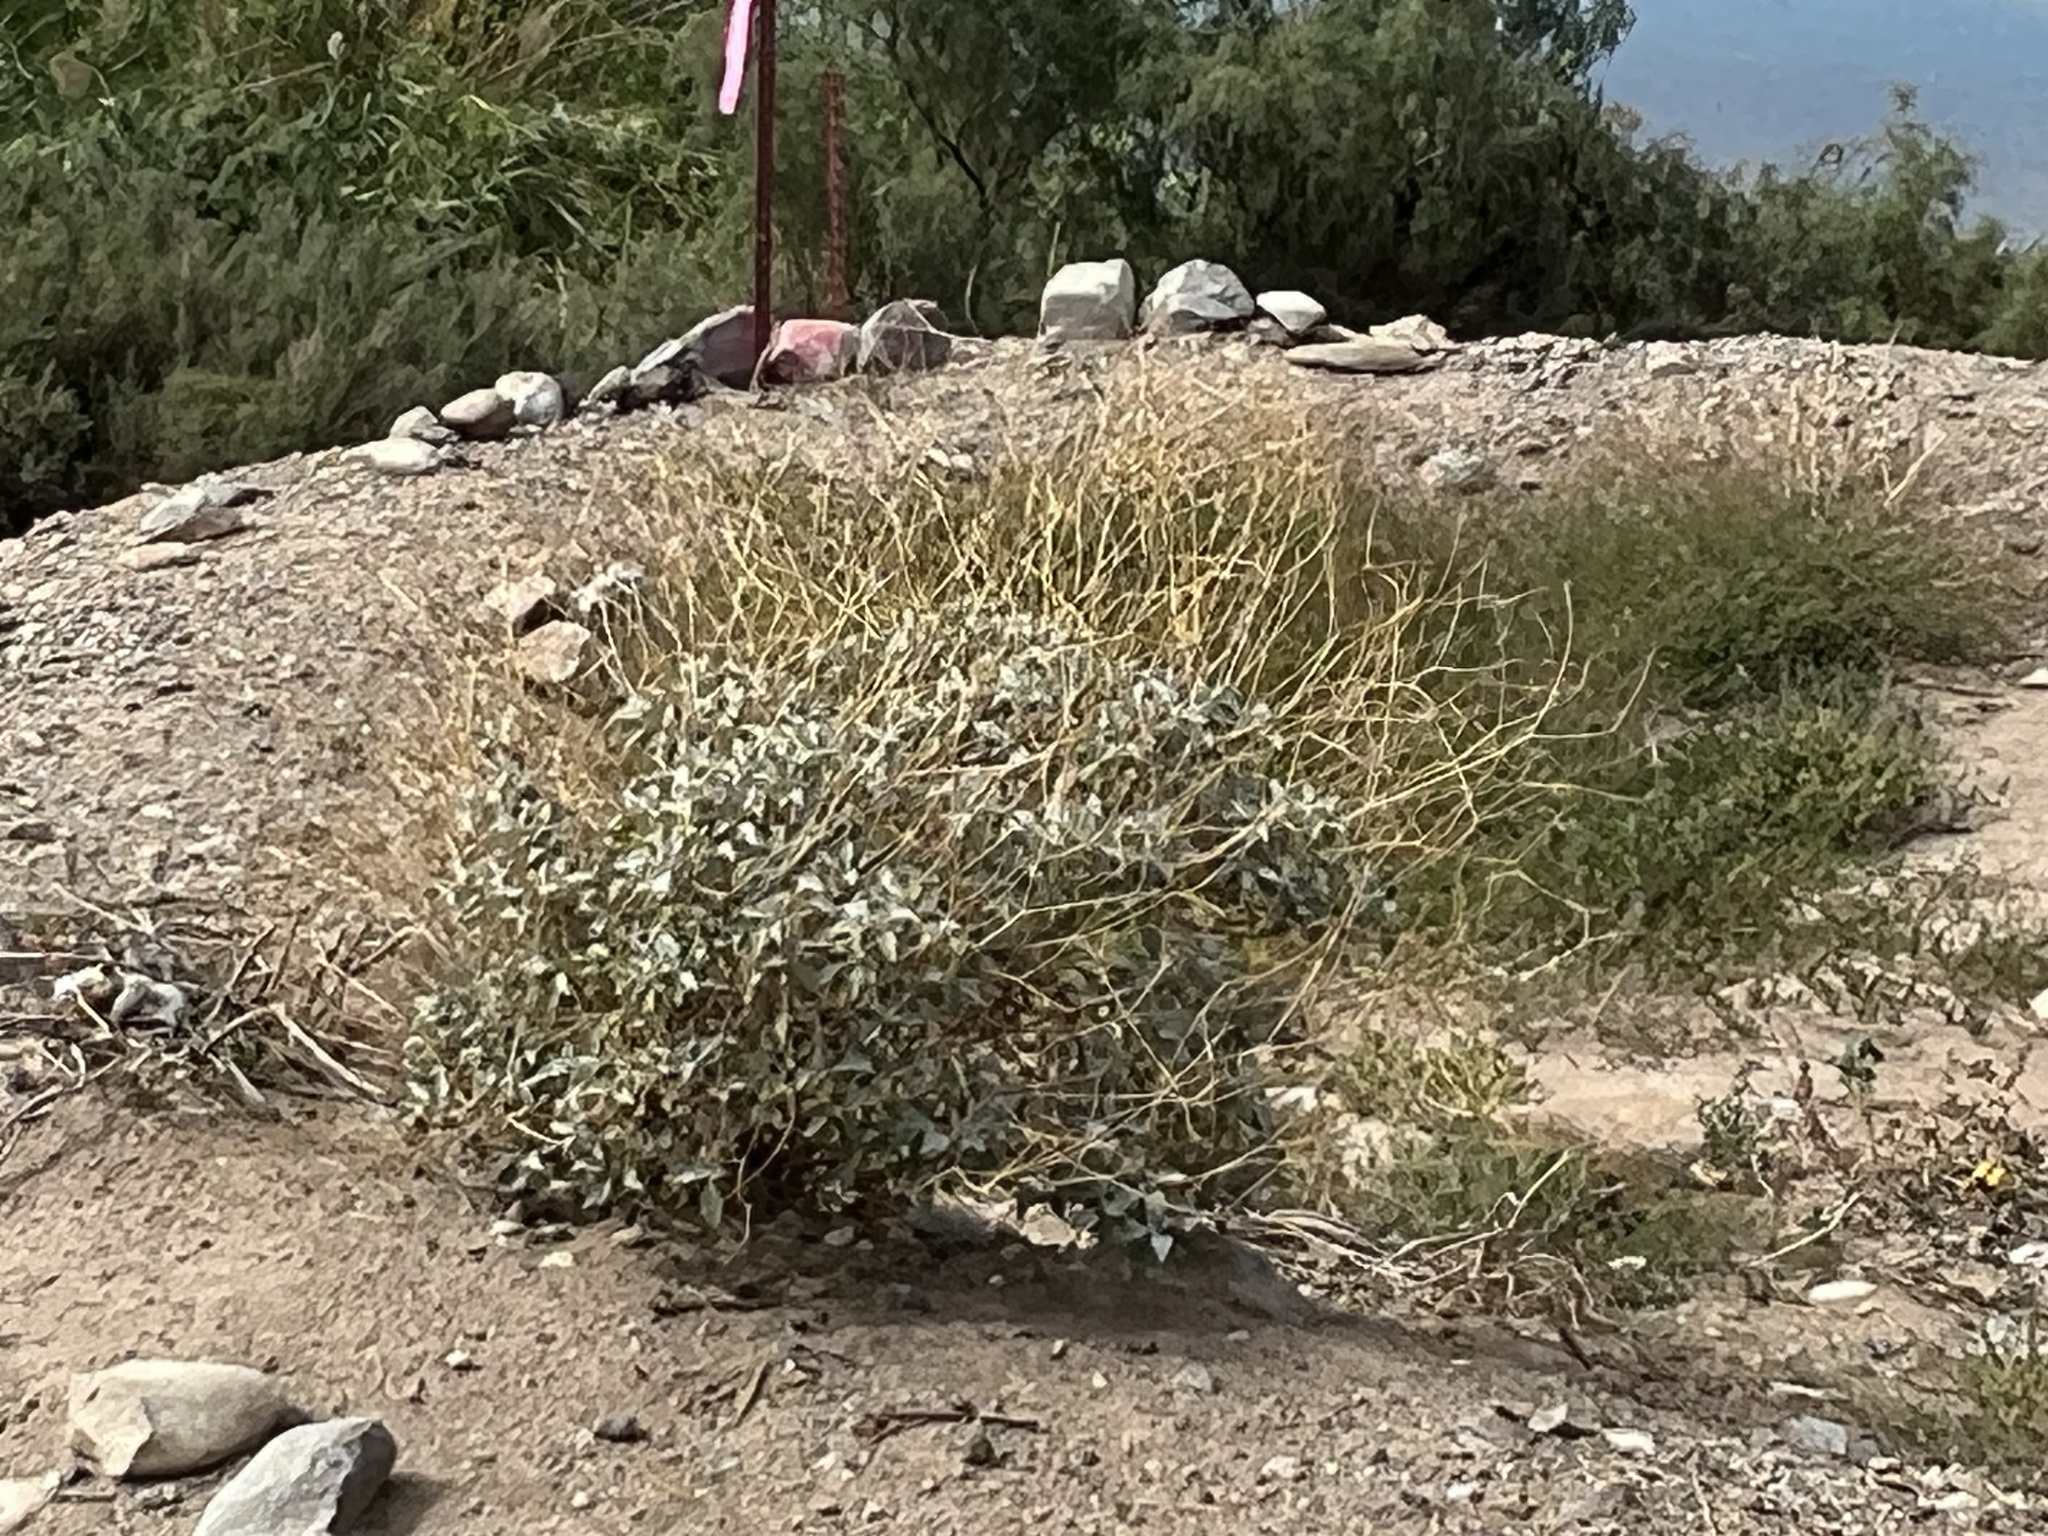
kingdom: Plantae
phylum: Tracheophyta
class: Magnoliopsida
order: Asterales
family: Asteraceae
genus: Encelia
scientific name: Encelia farinosa
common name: Brittlebush
